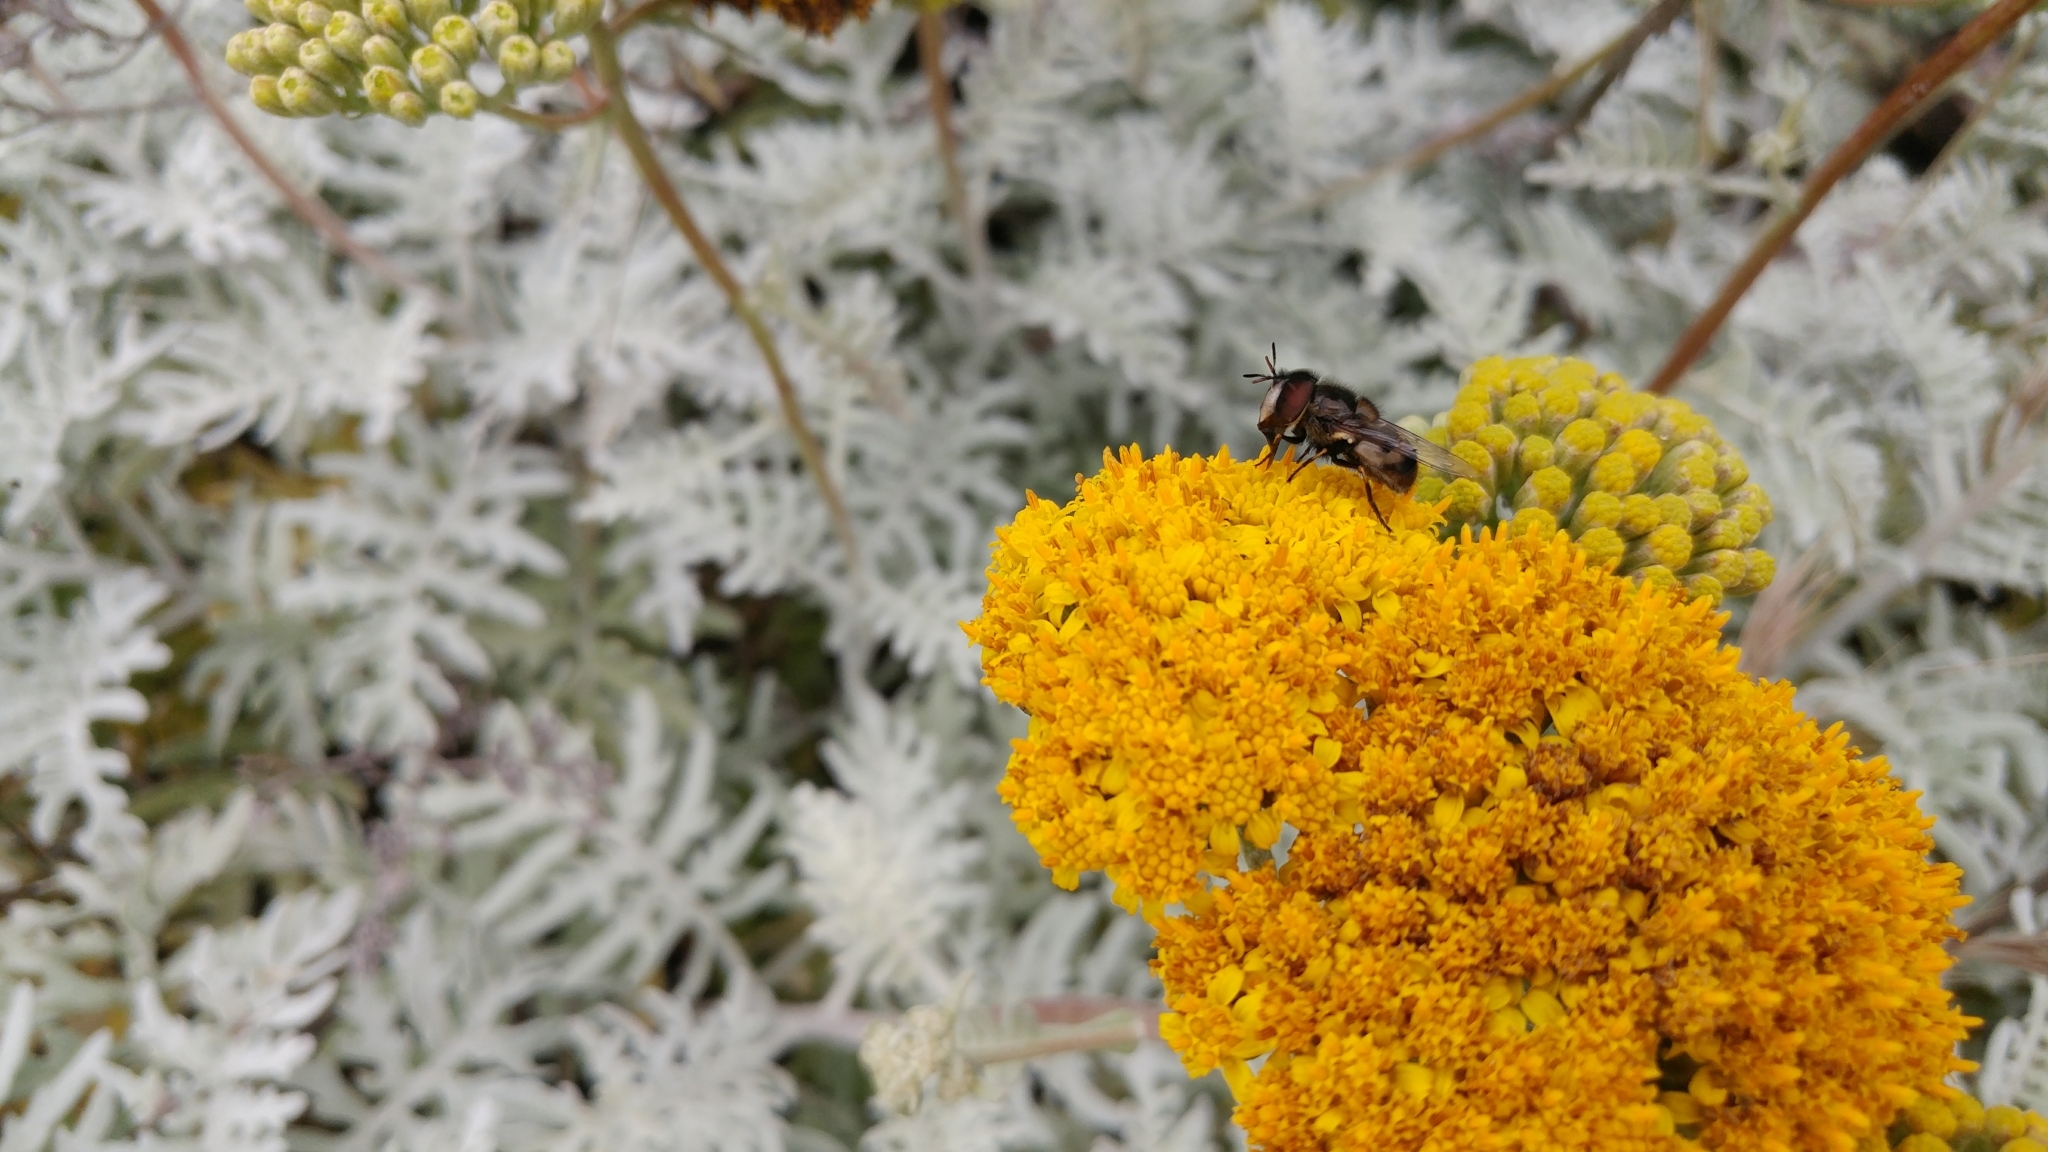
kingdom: Plantae
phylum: Tracheophyta
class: Magnoliopsida
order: Asterales
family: Asteraceae
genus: Constancea
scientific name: Constancea nevinii
